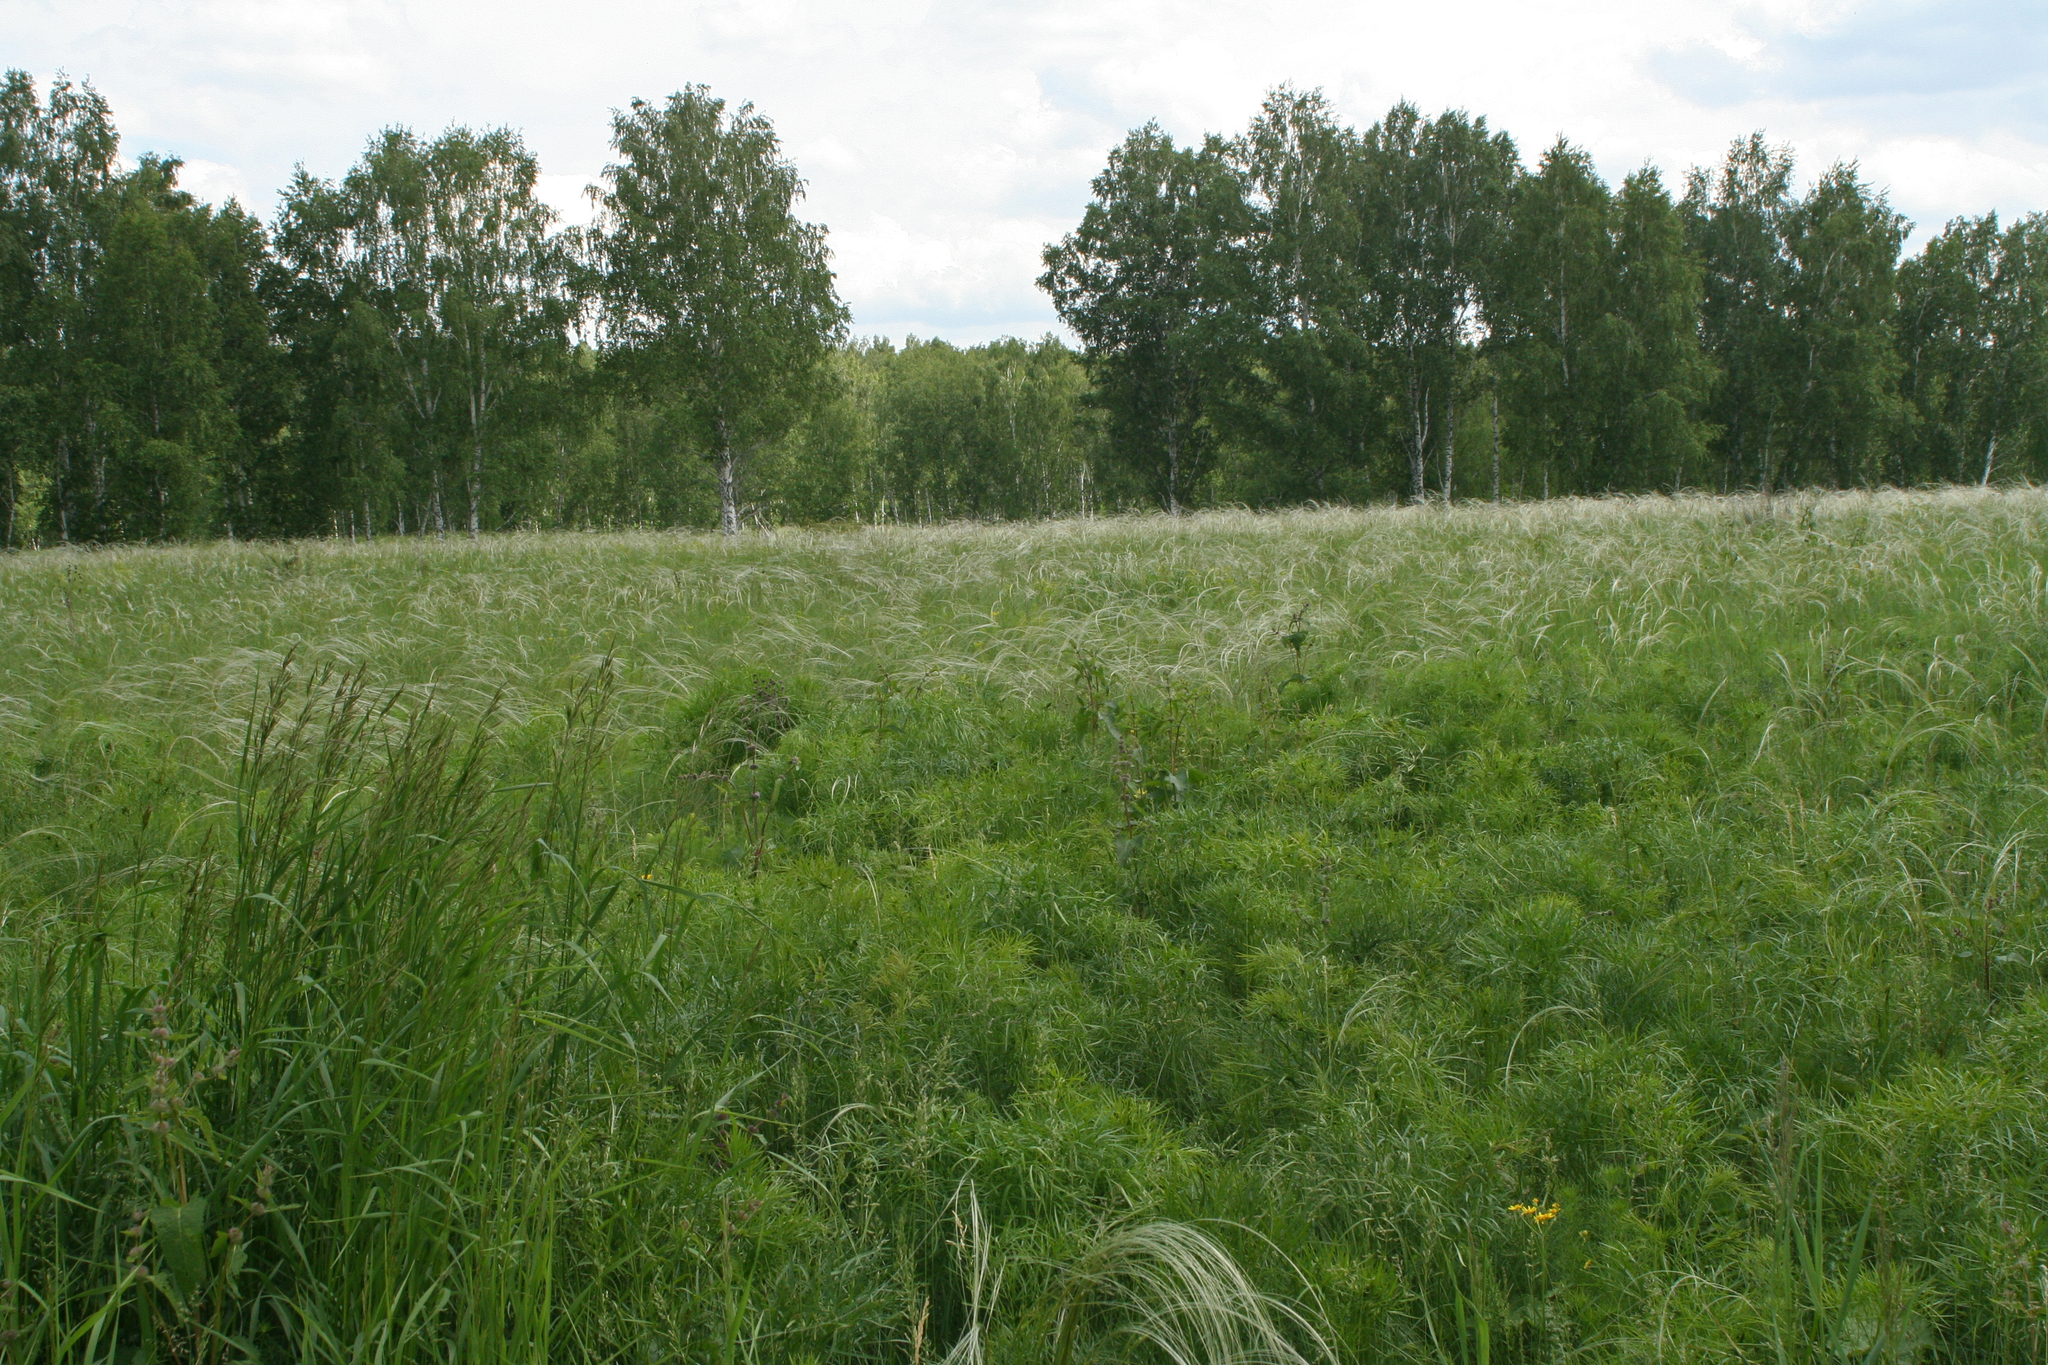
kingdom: Plantae
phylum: Tracheophyta
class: Liliopsida
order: Poales
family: Poaceae
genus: Stipa
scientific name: Stipa pennata
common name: European feather grass
